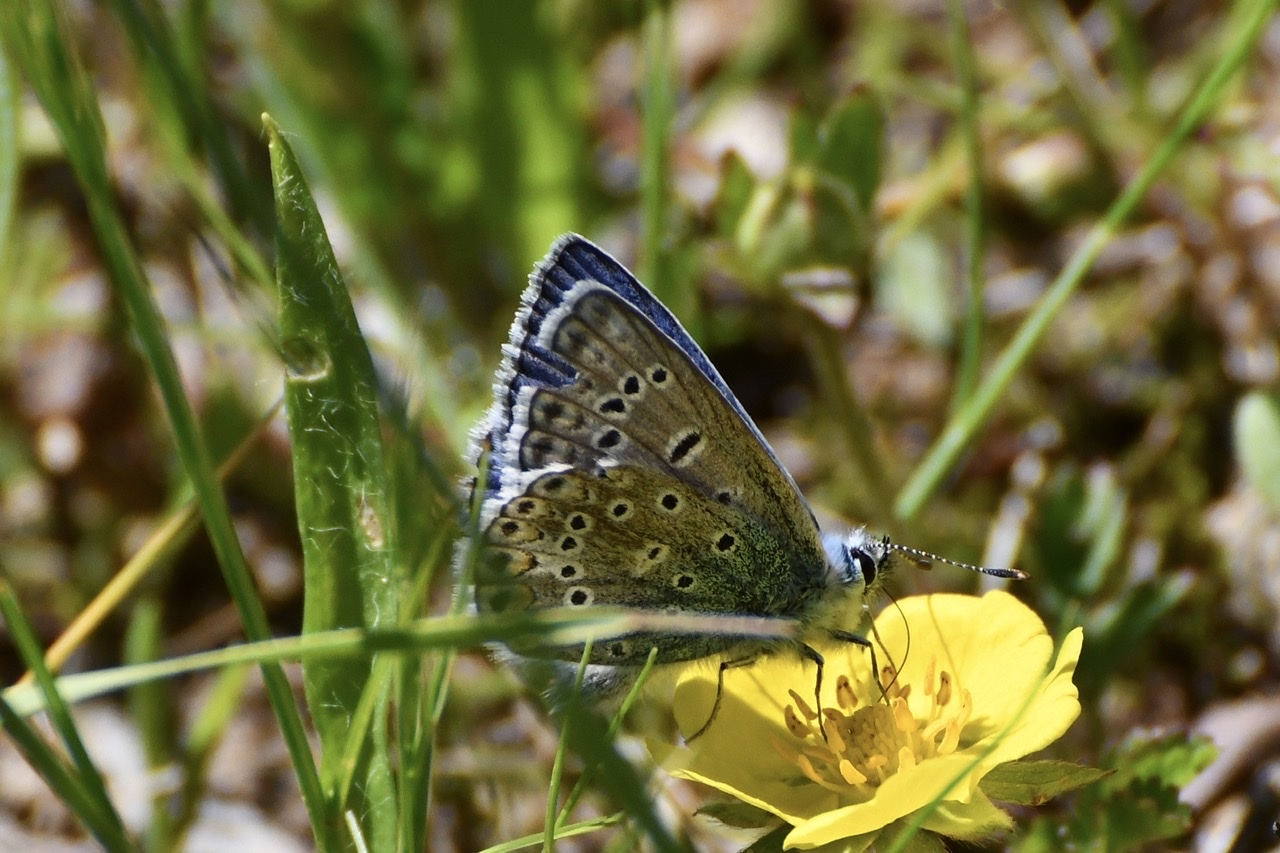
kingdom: Animalia
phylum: Arthropoda
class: Insecta
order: Lepidoptera
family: Lycaenidae
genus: Polyommatus
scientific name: Polyommatus icarus
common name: Common blue
